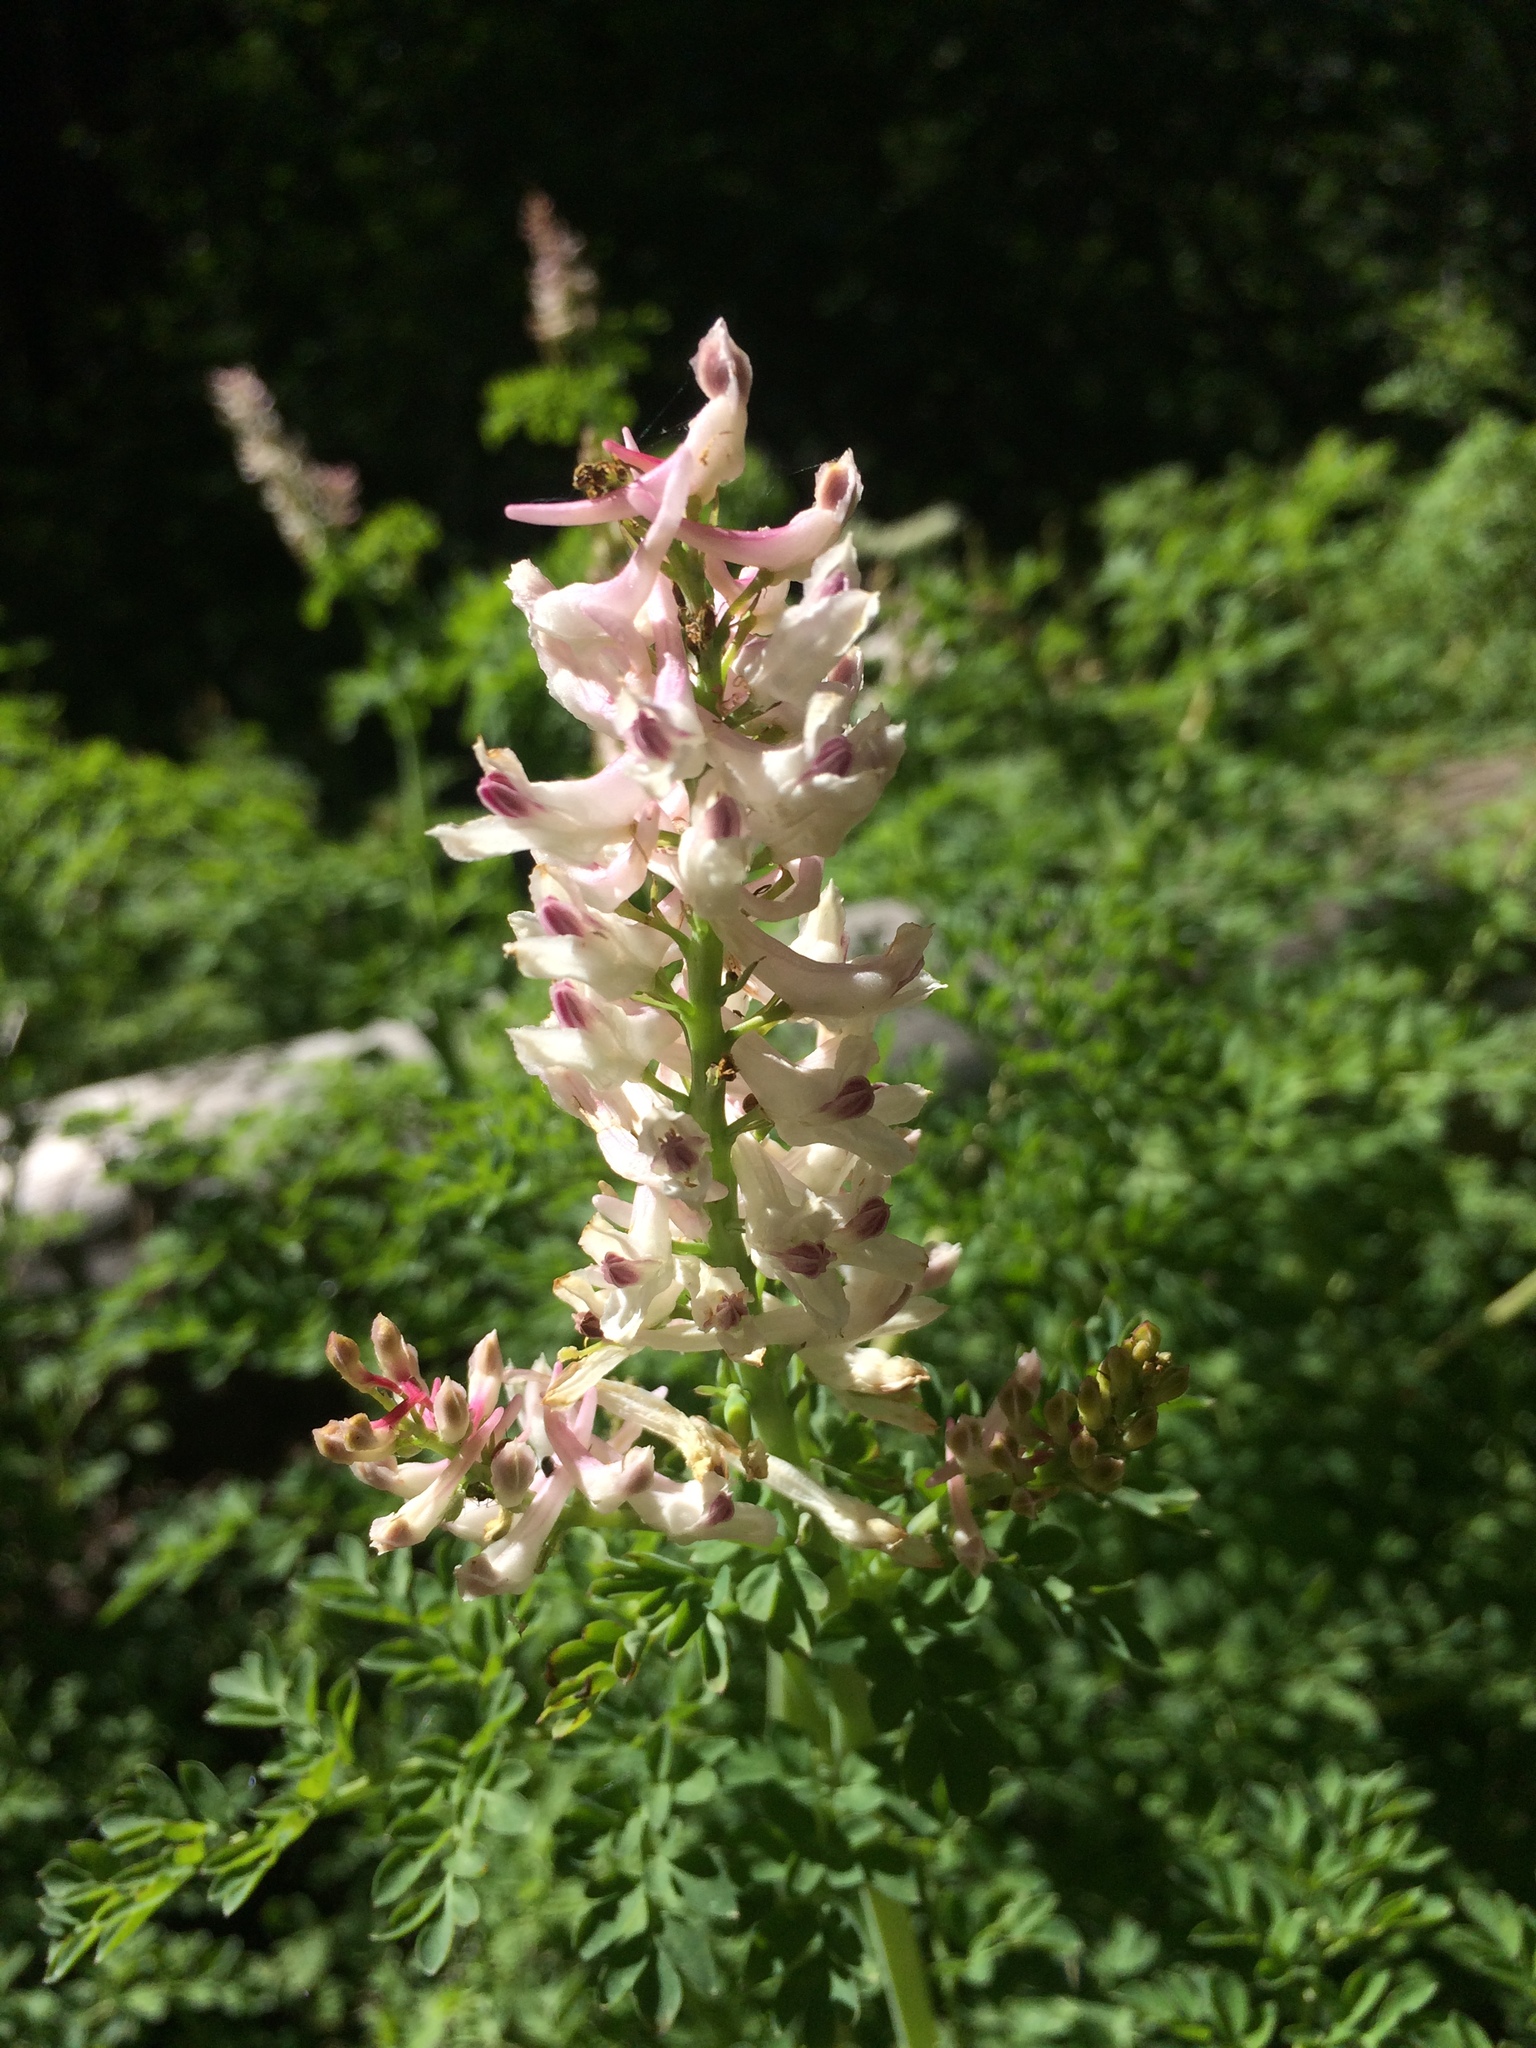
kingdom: Plantae
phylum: Tracheophyta
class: Magnoliopsida
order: Ranunculales
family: Papaveraceae
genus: Corydalis
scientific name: Corydalis caseana
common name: Fitweed
